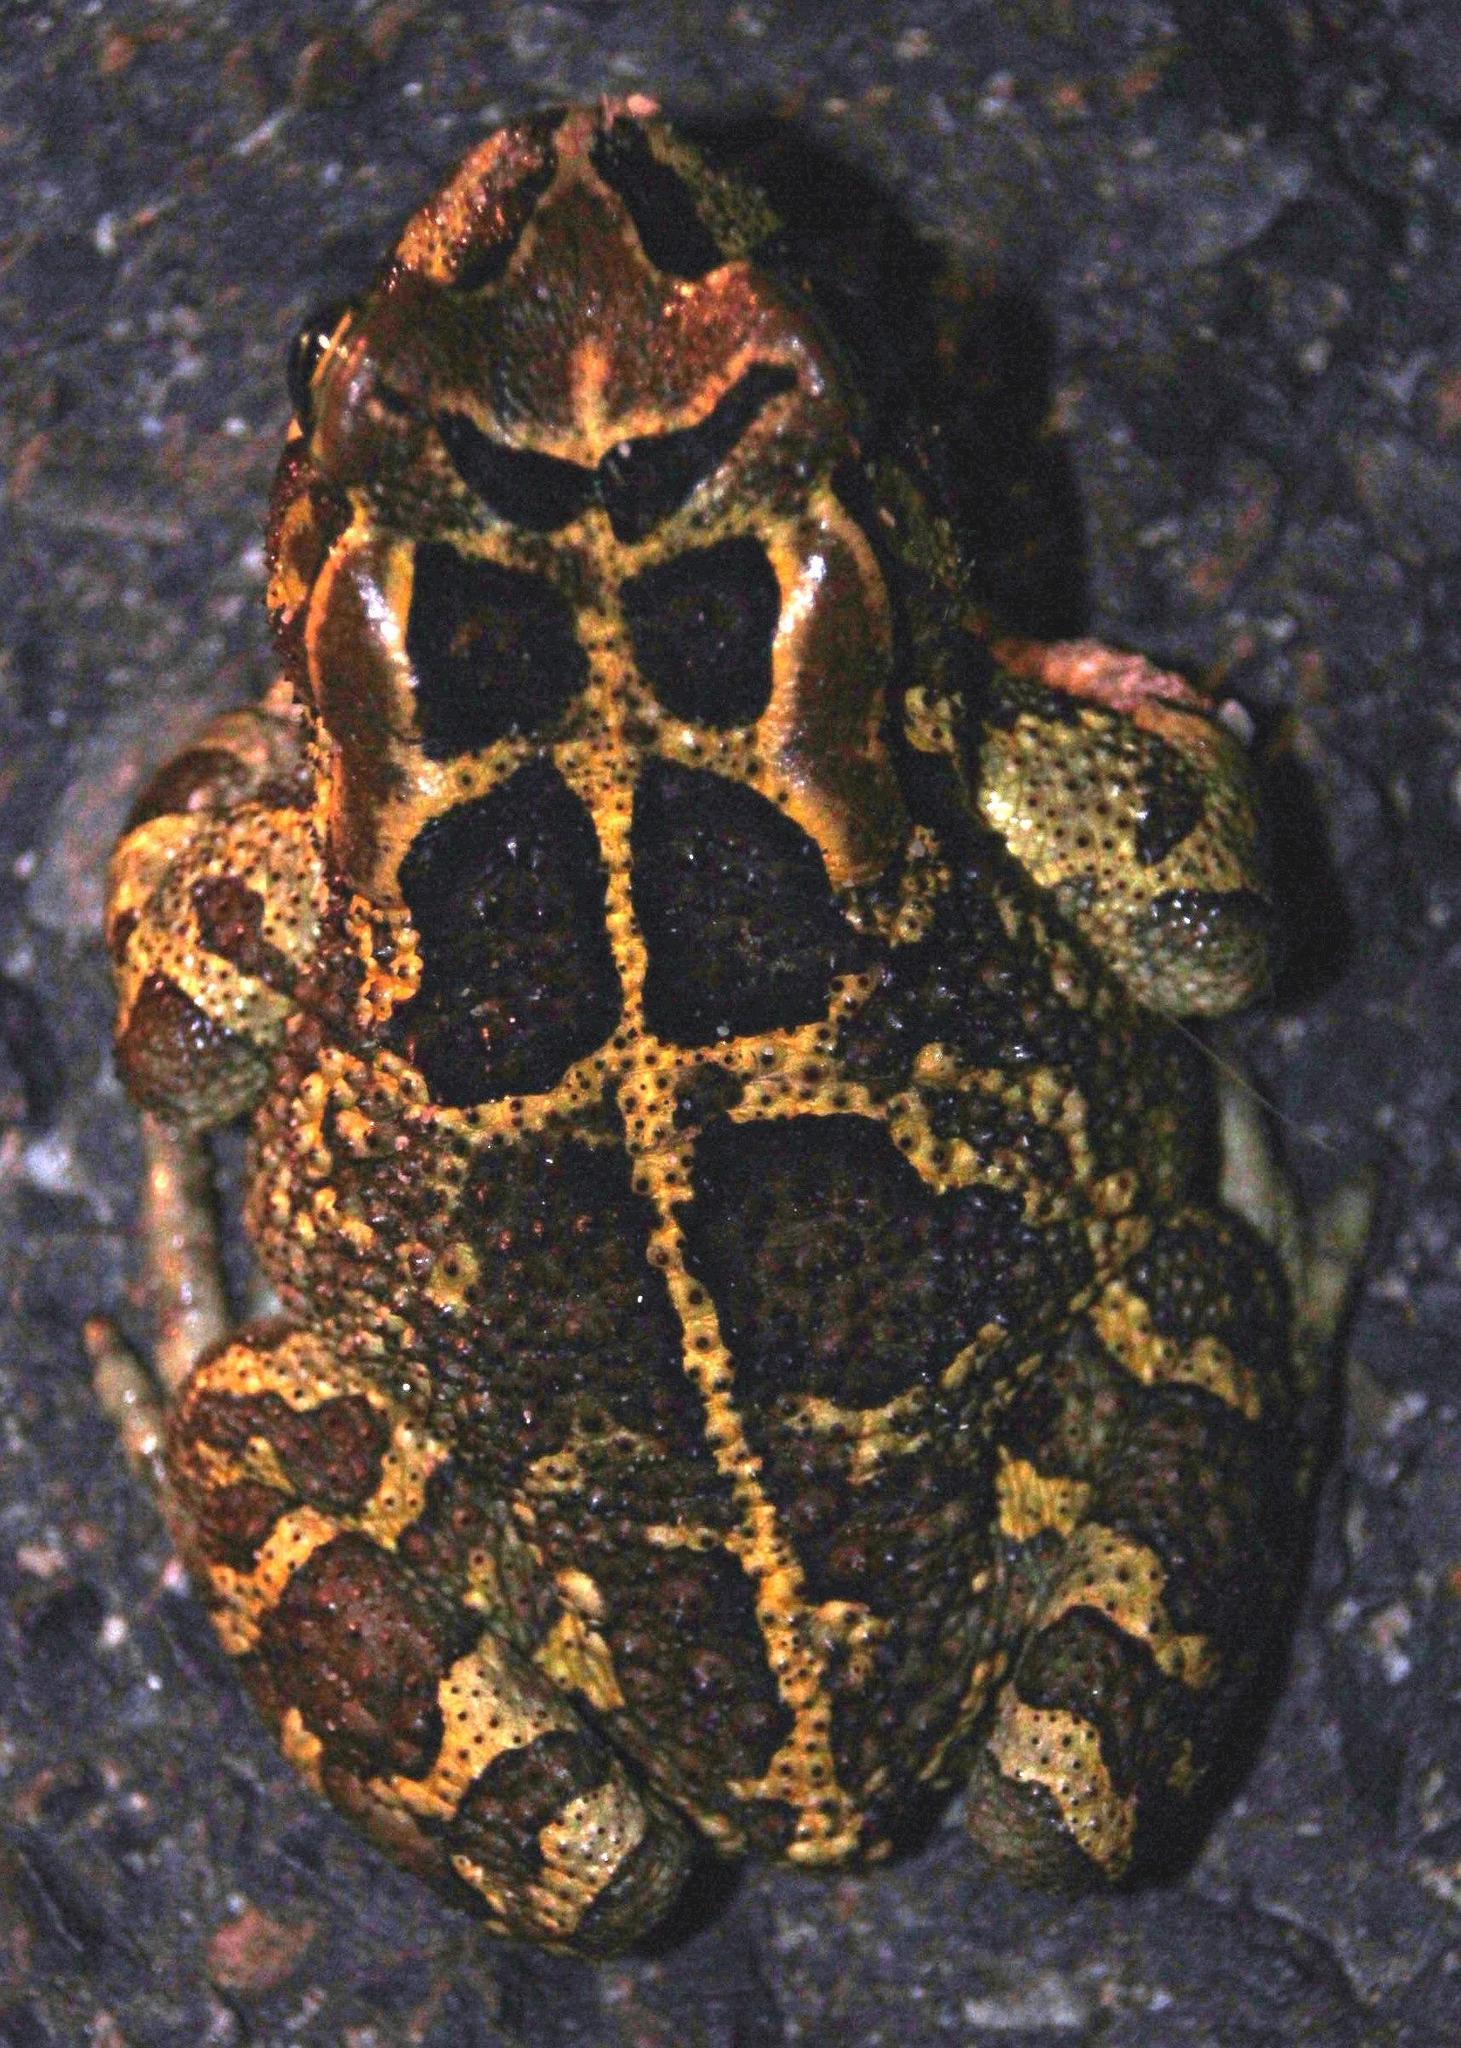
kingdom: Animalia
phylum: Chordata
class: Amphibia
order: Anura
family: Bufonidae
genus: Sclerophrys
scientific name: Sclerophrys pantherina
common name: Panther toad
